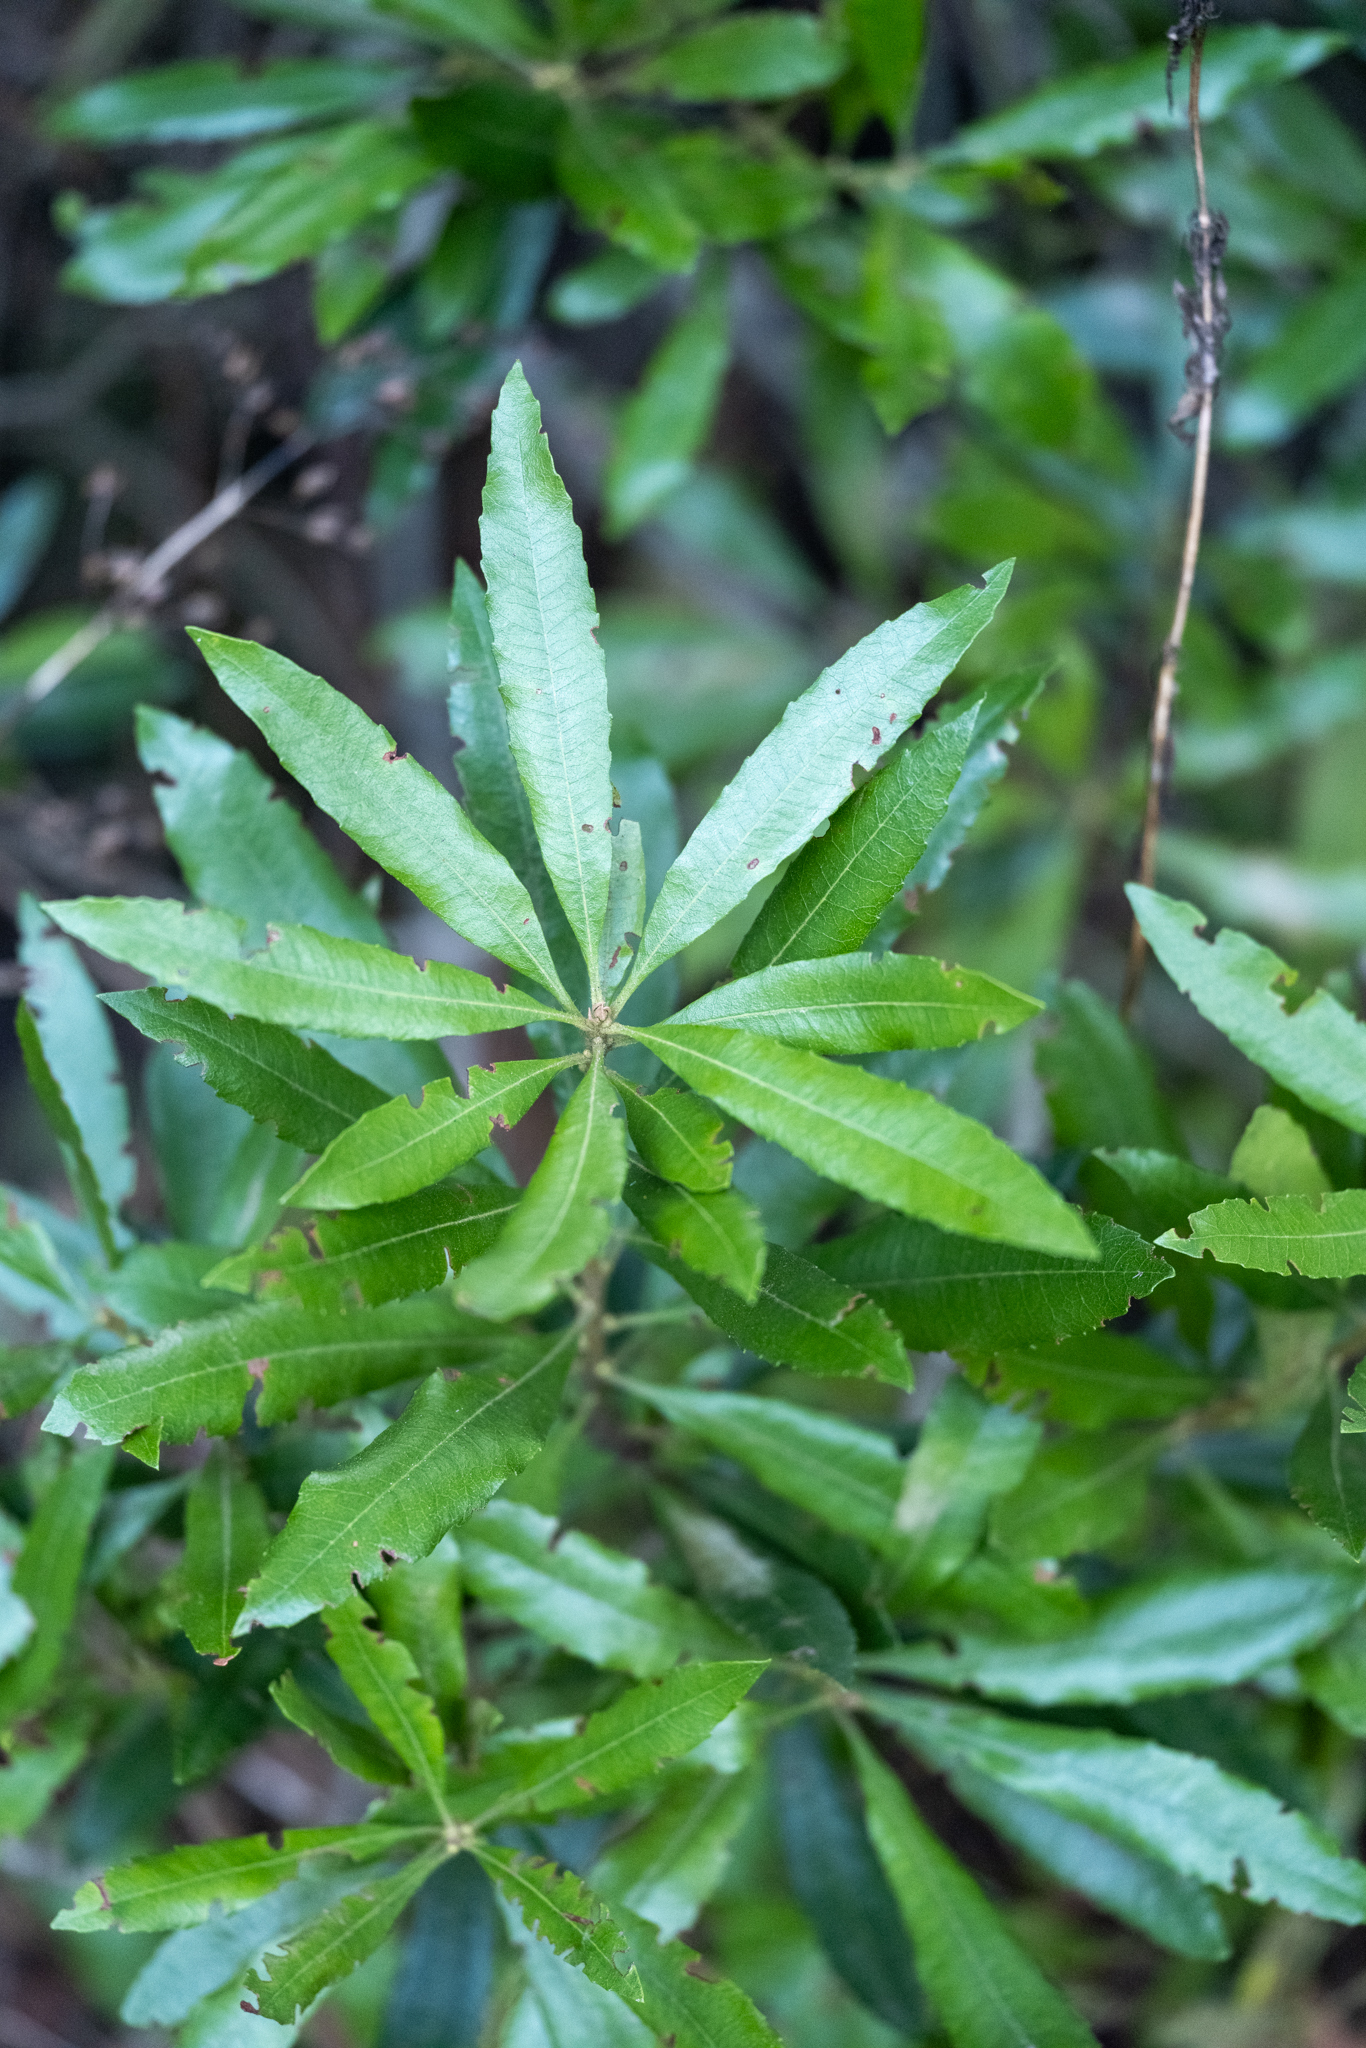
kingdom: Plantae
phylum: Tracheophyta
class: Magnoliopsida
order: Fagales
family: Myricaceae
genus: Morella
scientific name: Morella californica
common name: California wax-myrtle
